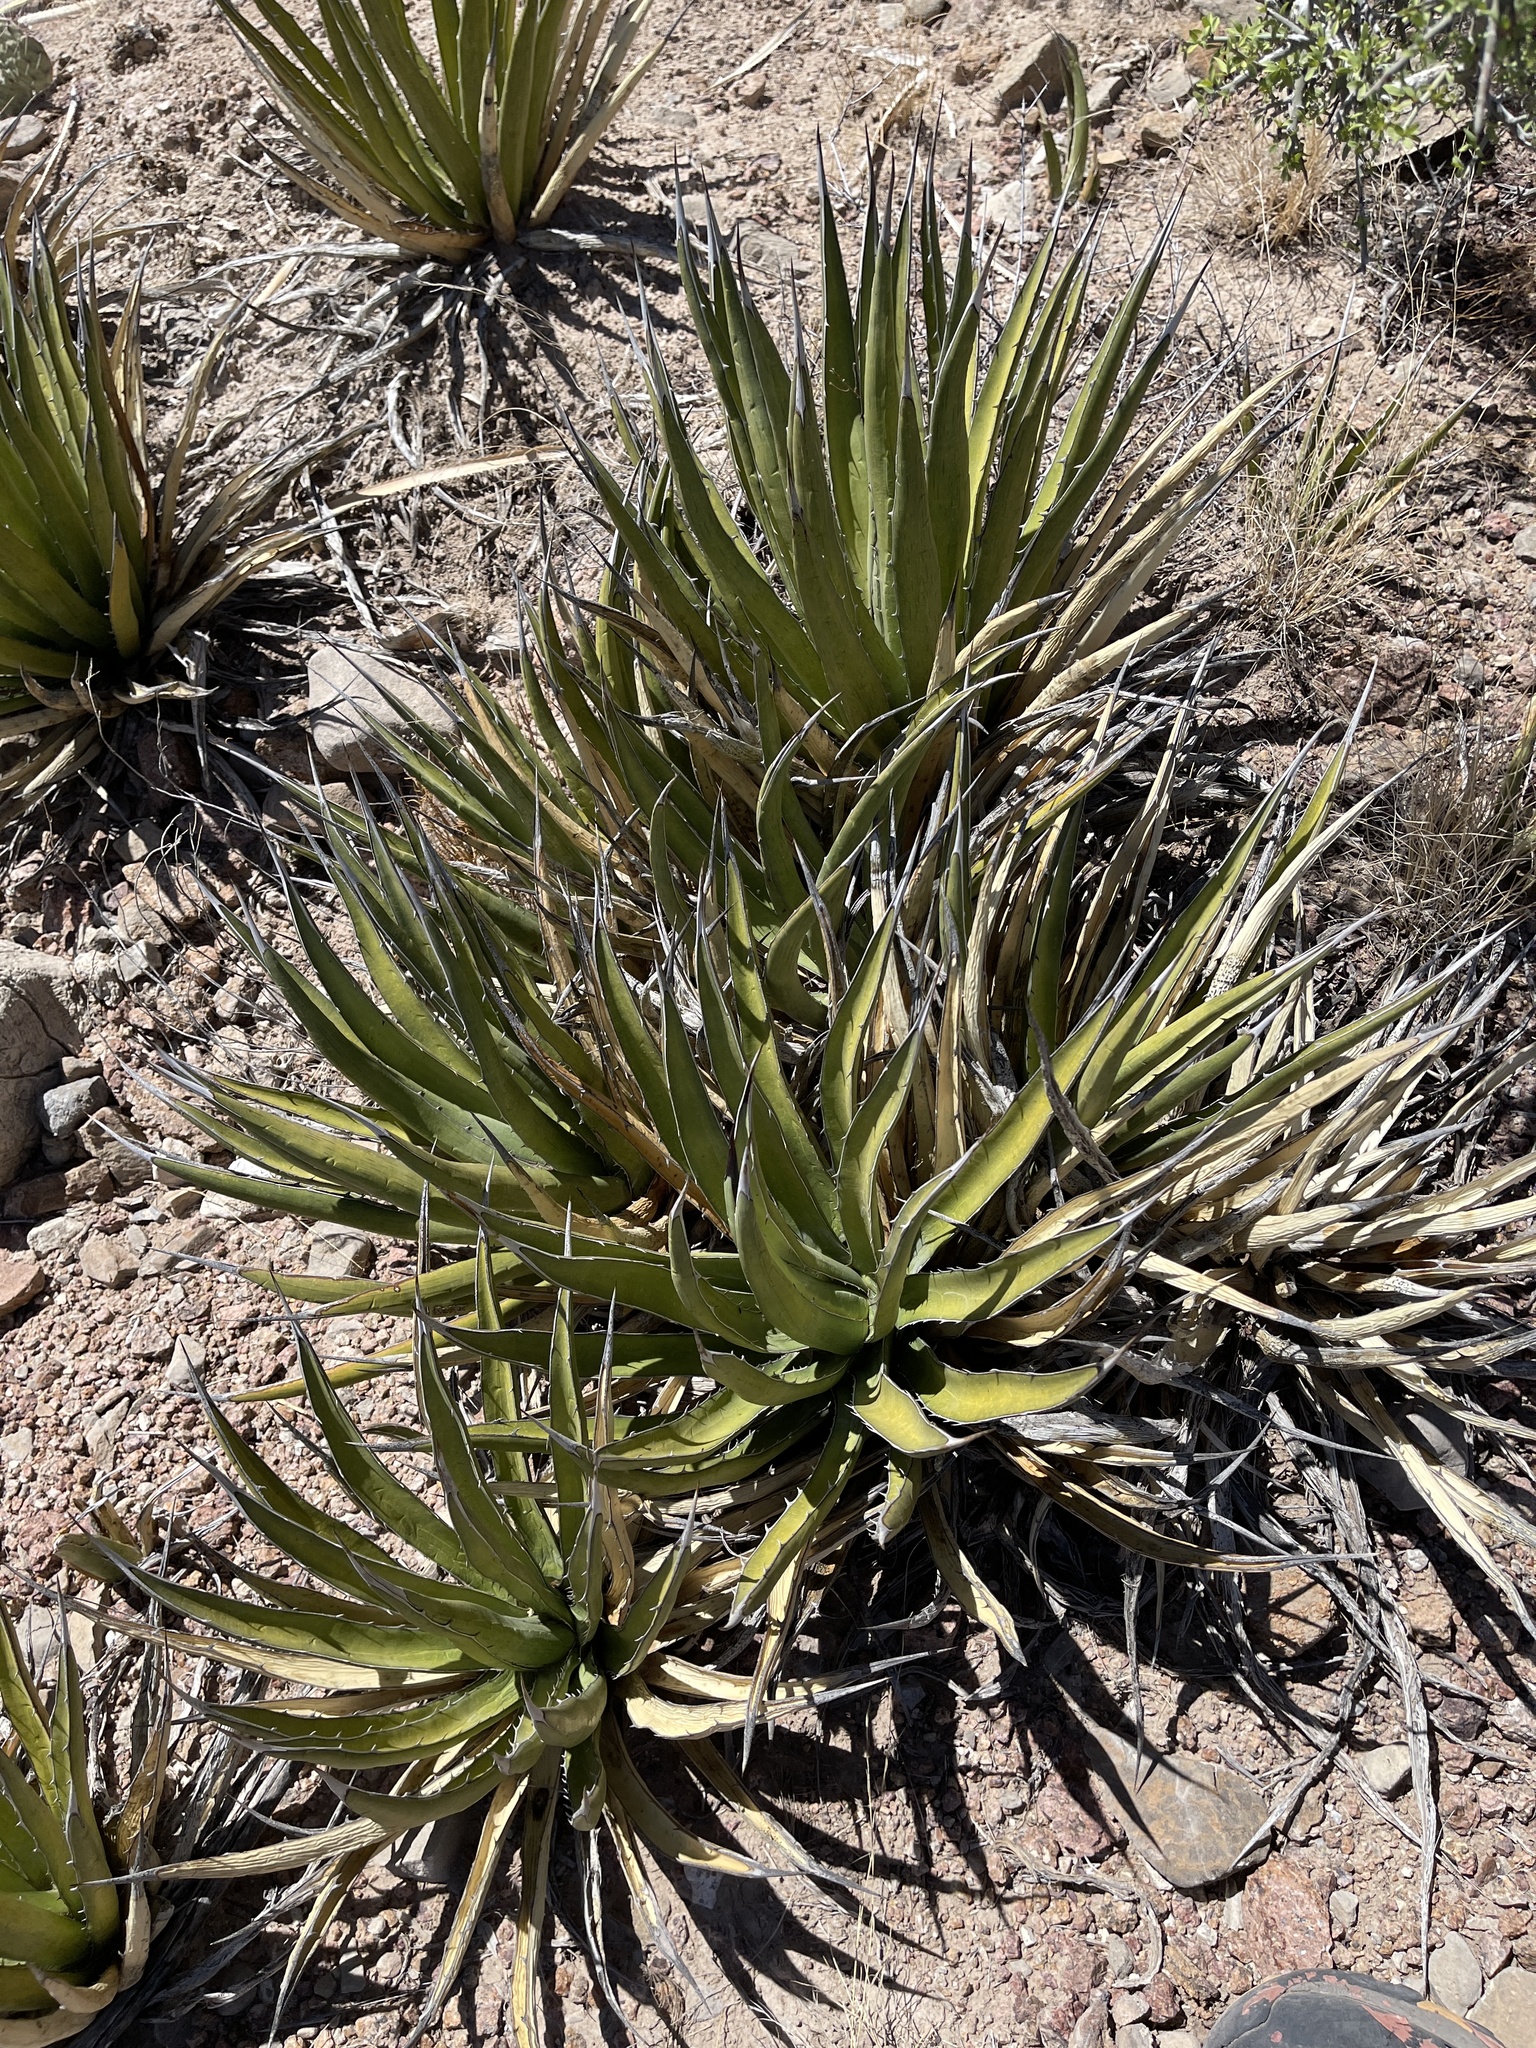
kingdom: Plantae
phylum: Tracheophyta
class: Liliopsida
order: Asparagales
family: Asparagaceae
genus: Agave
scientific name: Agave lechuguilla
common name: Lecheguilla agave
